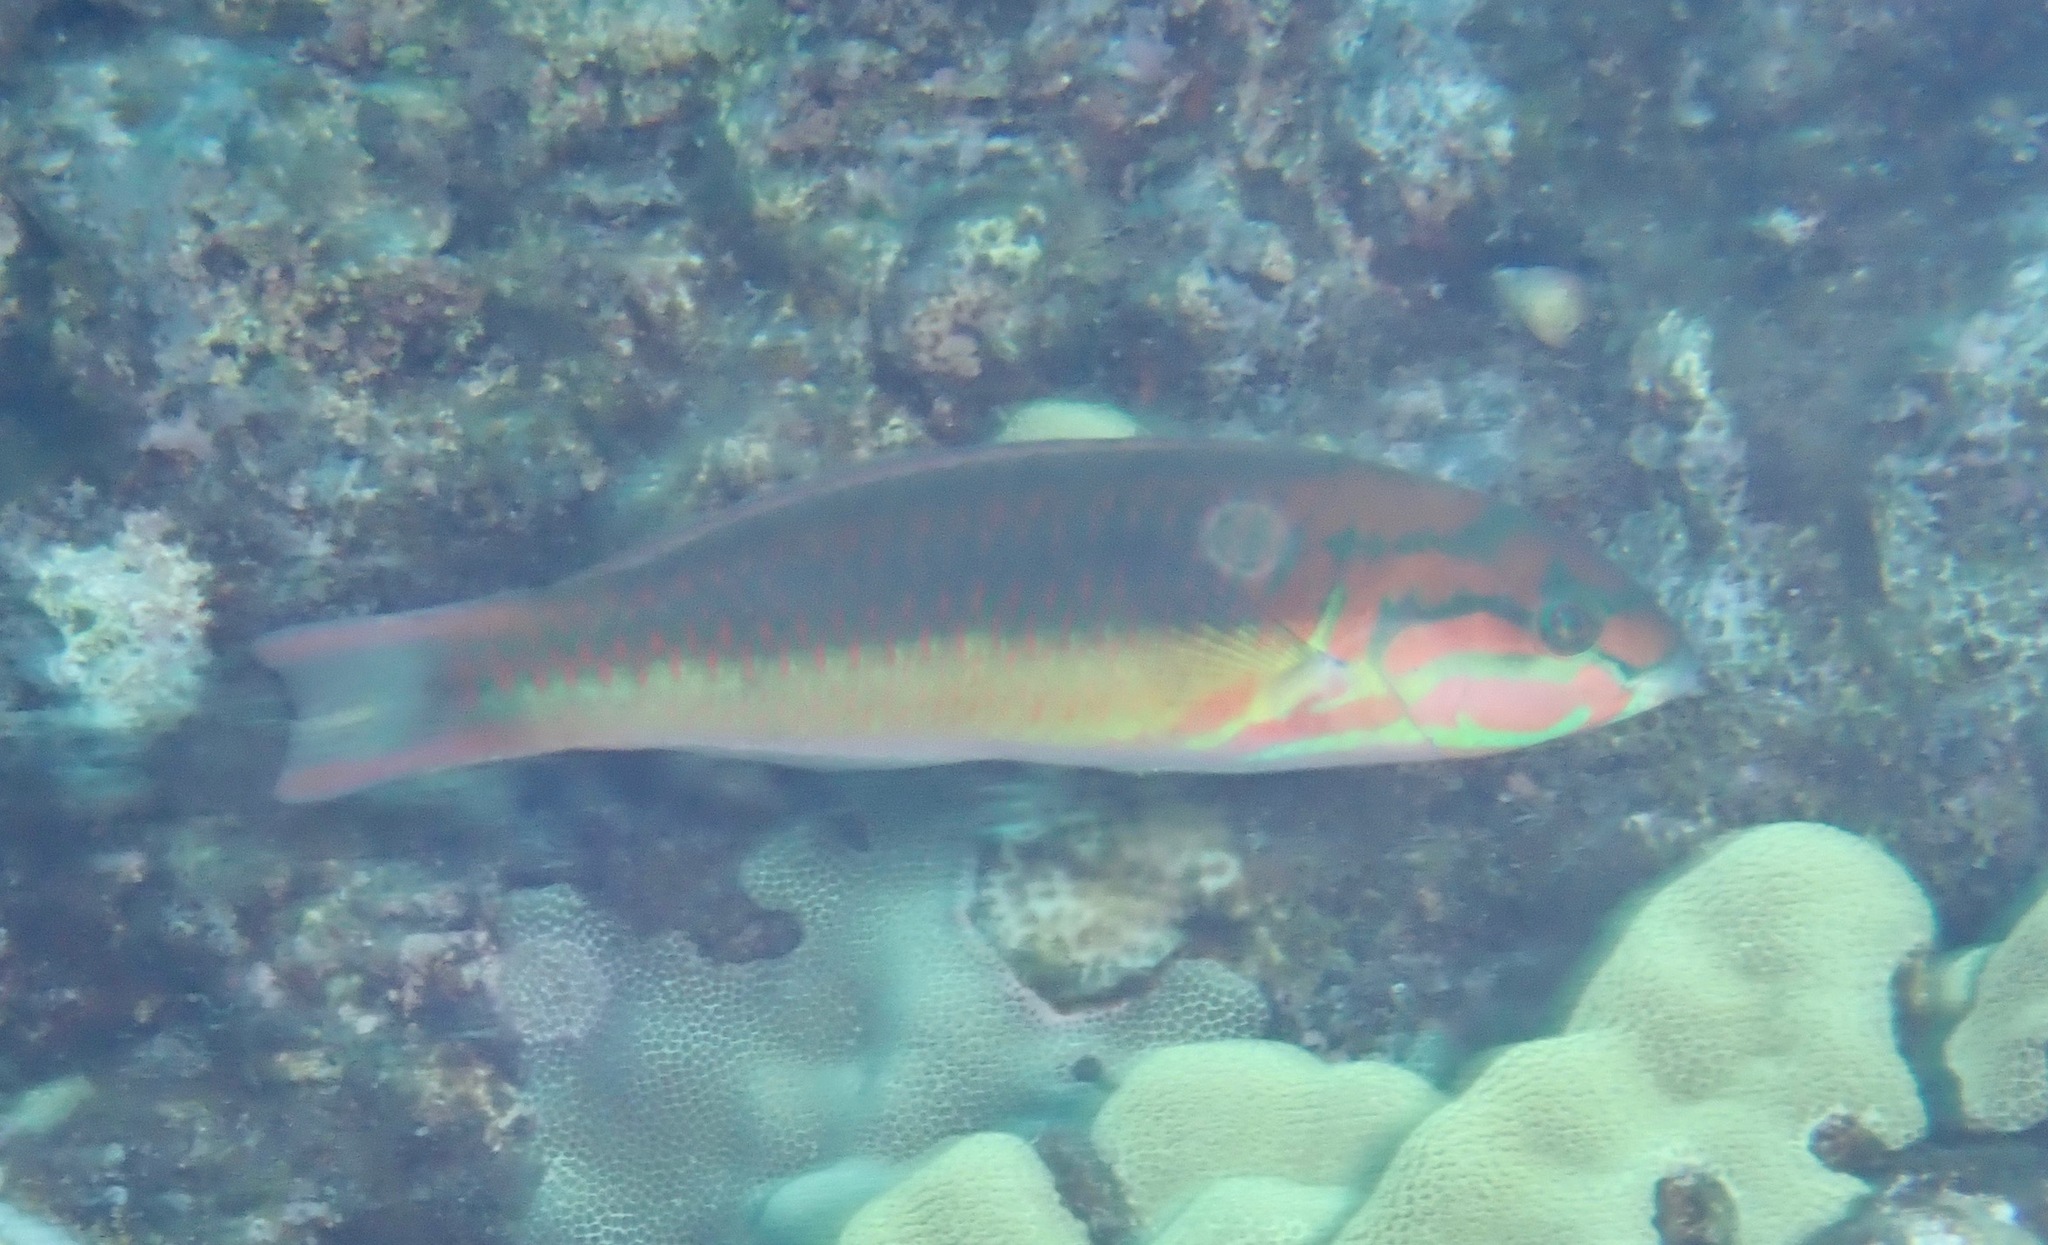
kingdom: Animalia
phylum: Chordata
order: Perciformes
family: Labridae
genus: Thalassoma
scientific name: Thalassoma quinquevittatum
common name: Five striped surge wrasse
